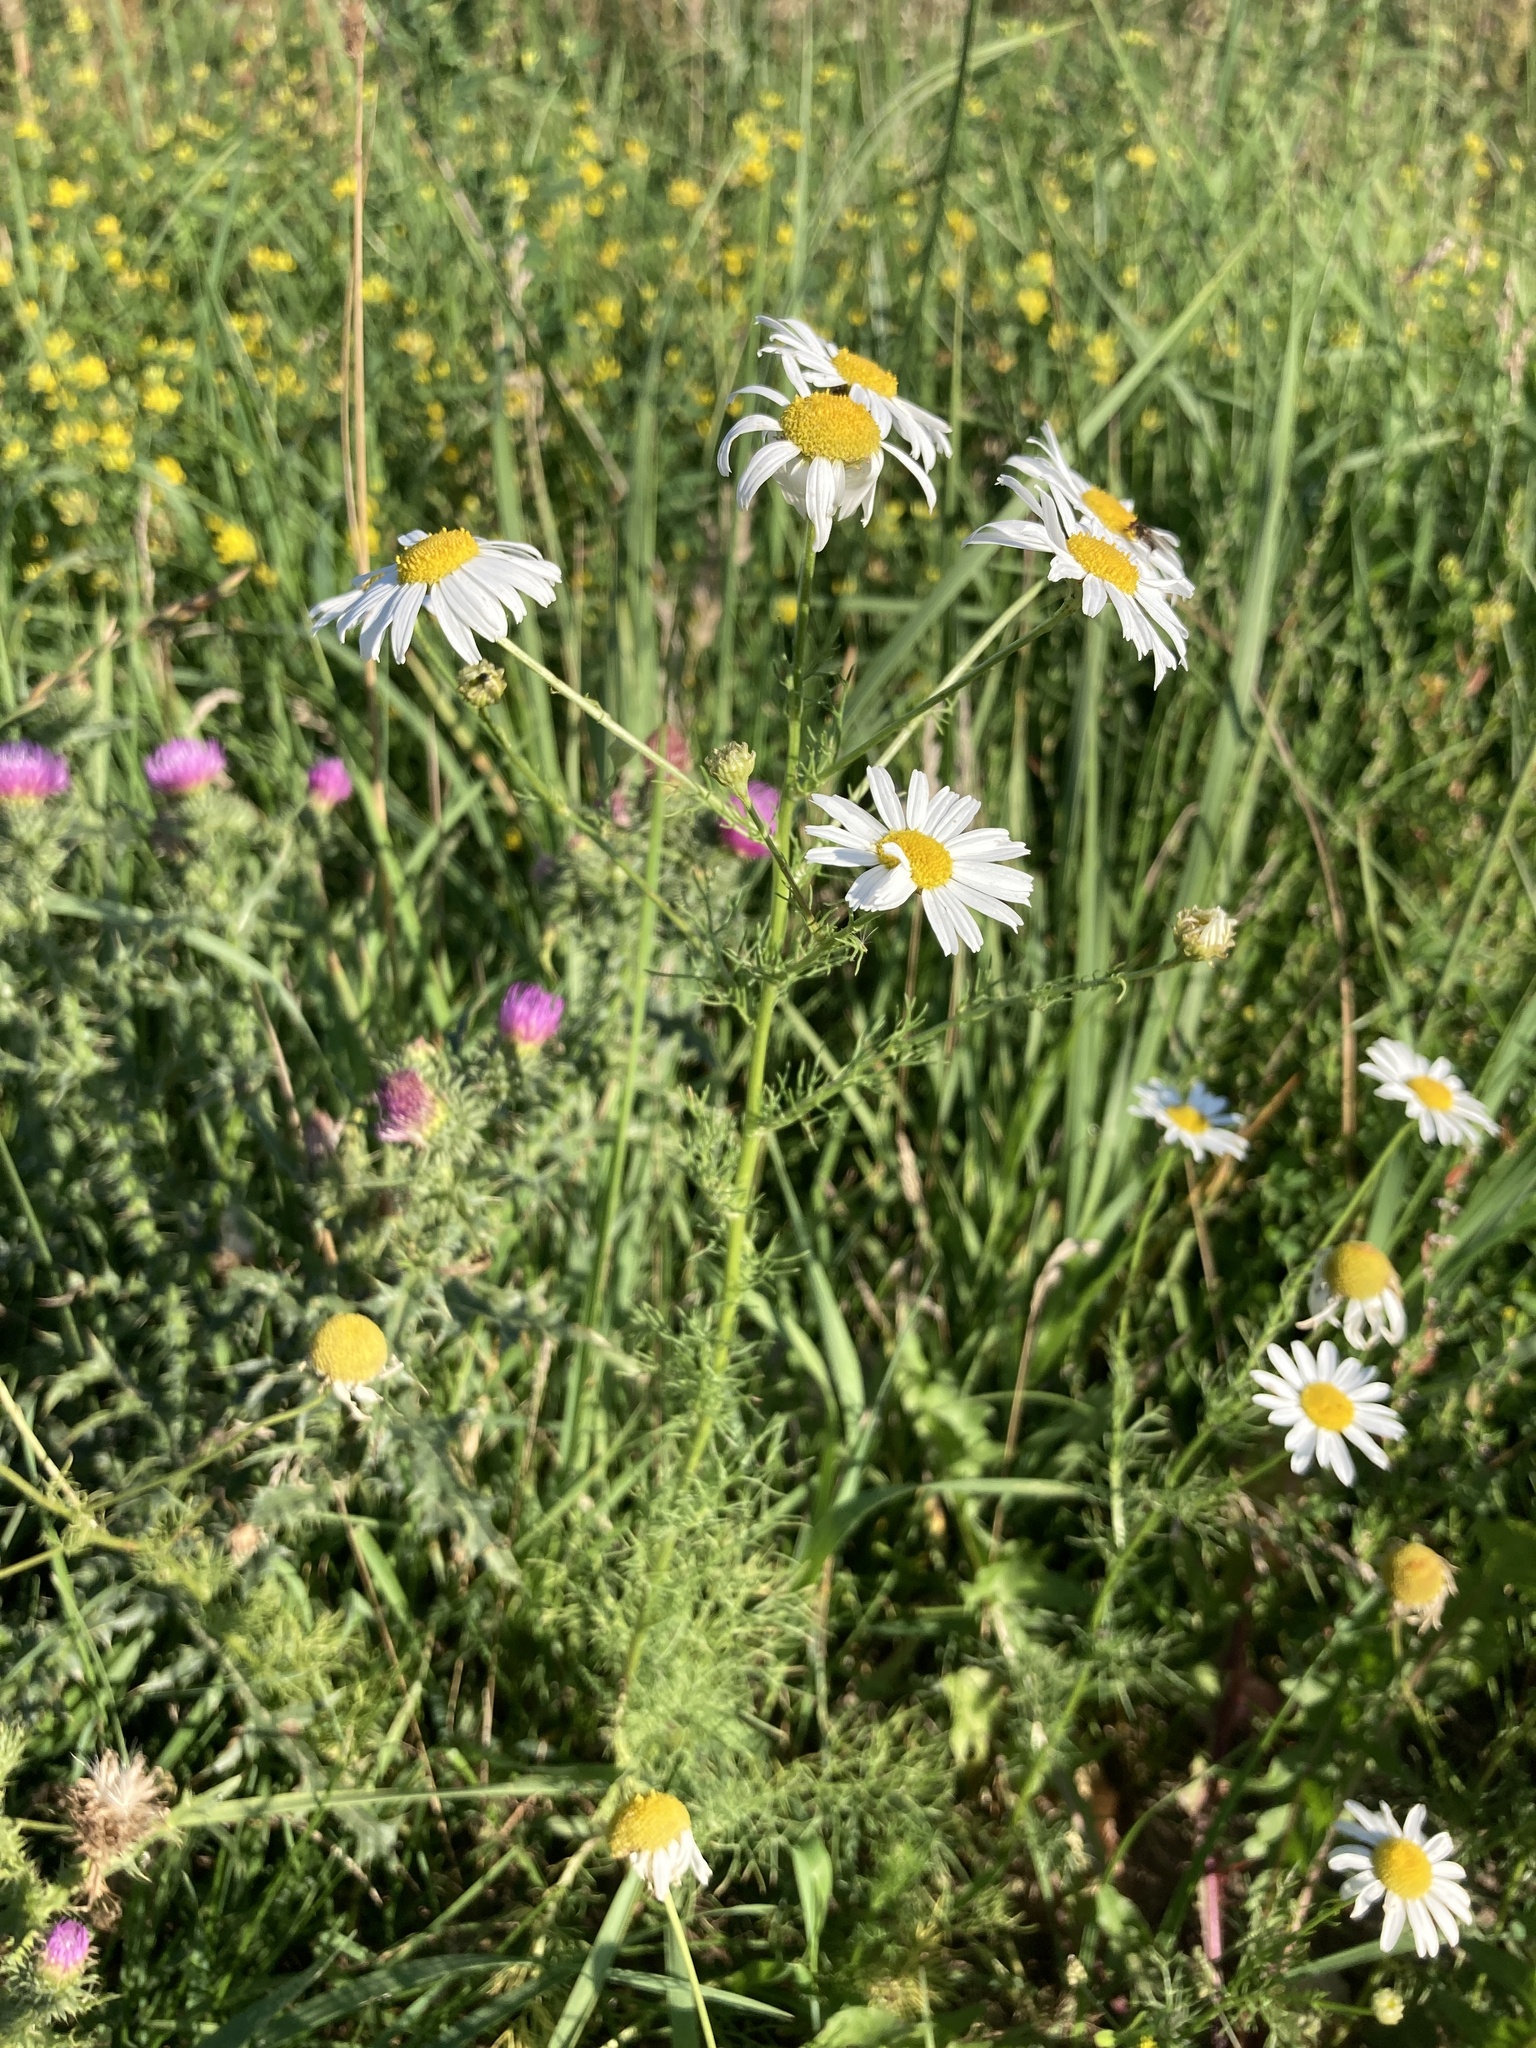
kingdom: Plantae
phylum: Tracheophyta
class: Magnoliopsida
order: Asterales
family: Asteraceae
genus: Tripleurospermum
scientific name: Tripleurospermum inodorum
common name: Scentless mayweed
